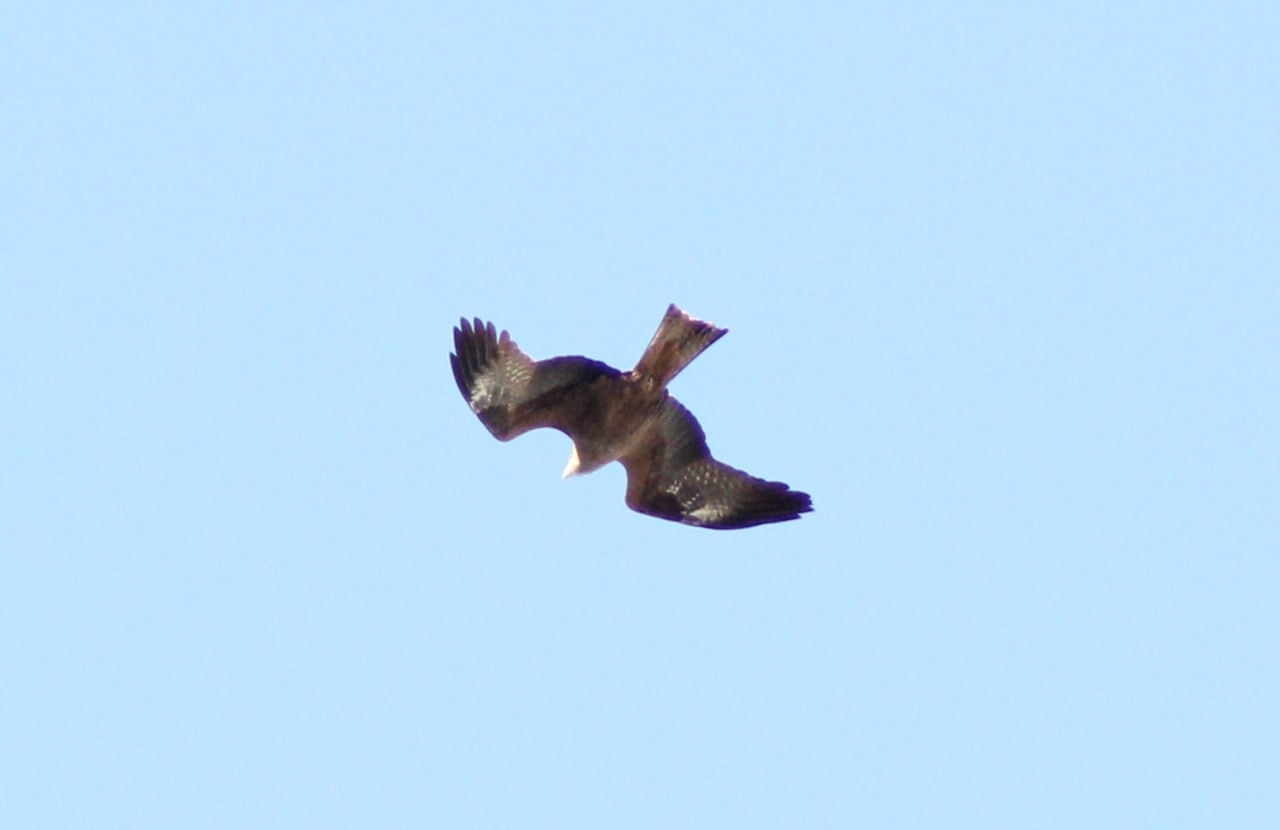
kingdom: Animalia
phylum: Chordata
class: Aves
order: Accipitriformes
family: Accipitridae
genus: Milvus
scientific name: Milvus migrans
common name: Black kite
